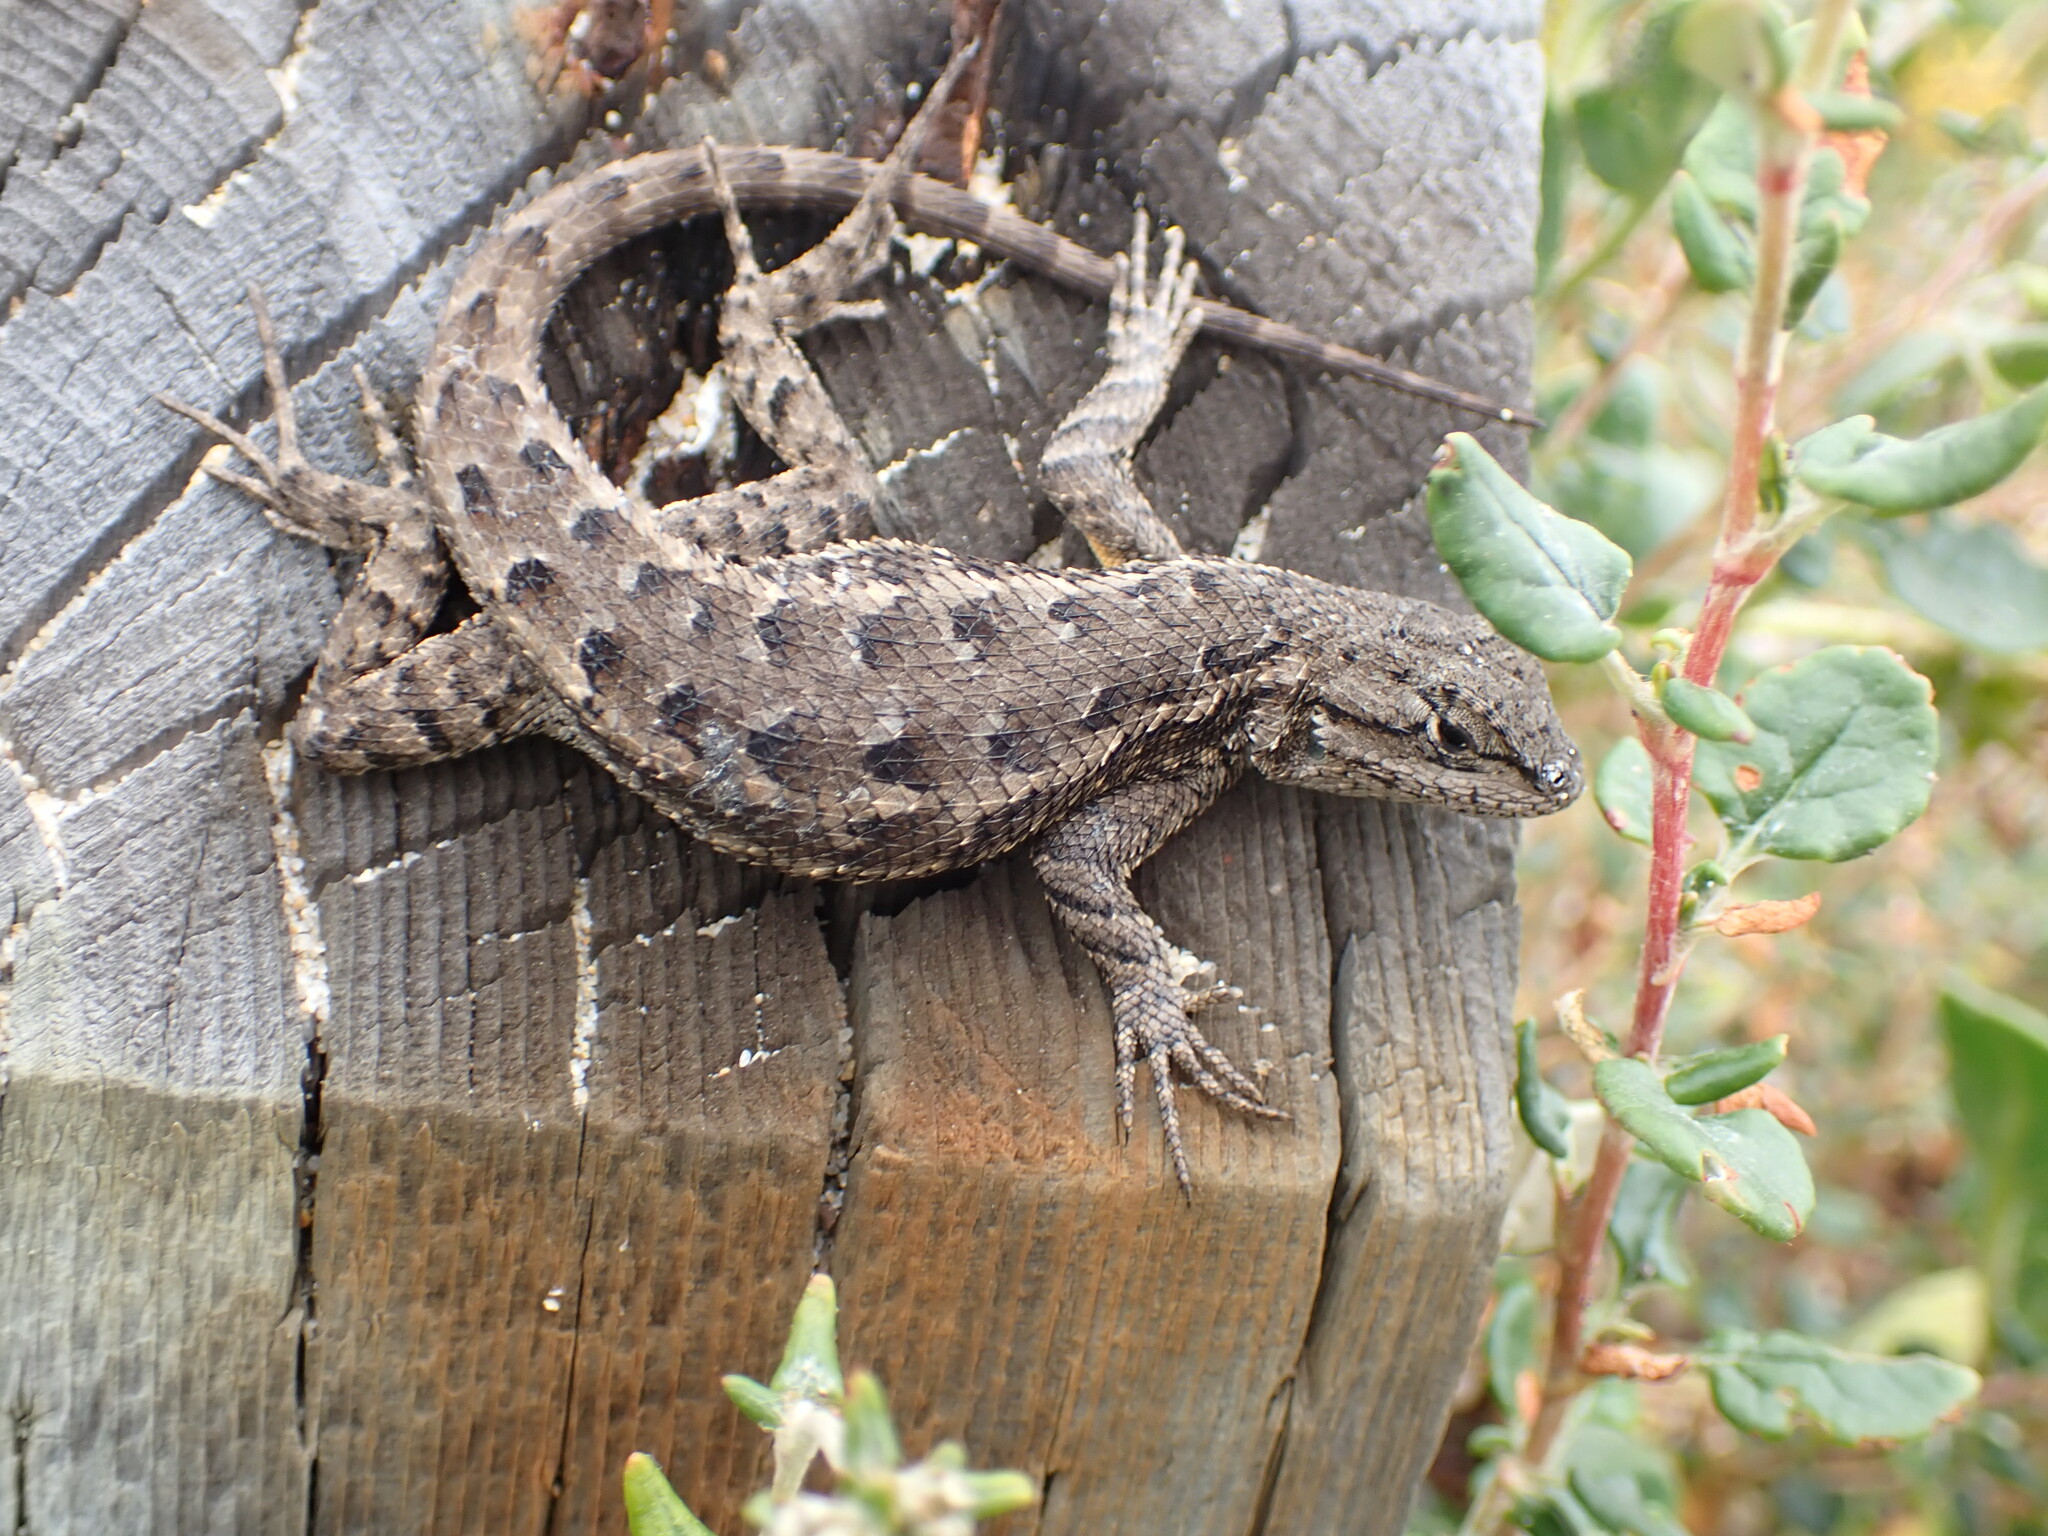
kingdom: Animalia
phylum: Chordata
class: Squamata
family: Phrynosomatidae
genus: Sceloporus
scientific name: Sceloporus occidentalis
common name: Western fence lizard
